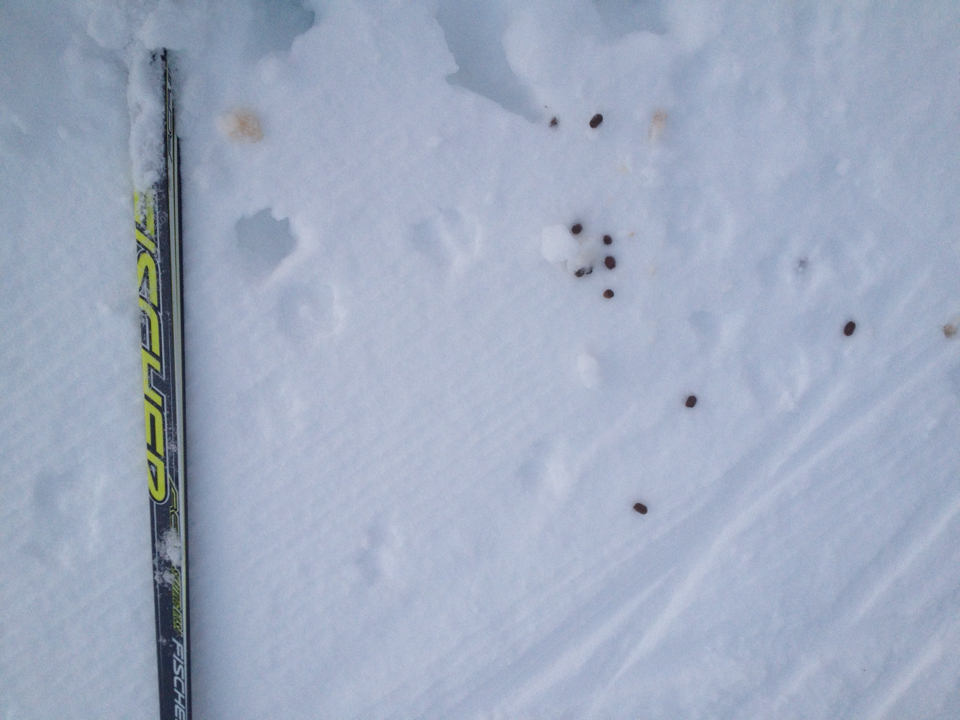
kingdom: Animalia
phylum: Chordata
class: Mammalia
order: Artiodactyla
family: Cervidae
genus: Odocoileus
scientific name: Odocoileus virginianus
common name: White-tailed deer
